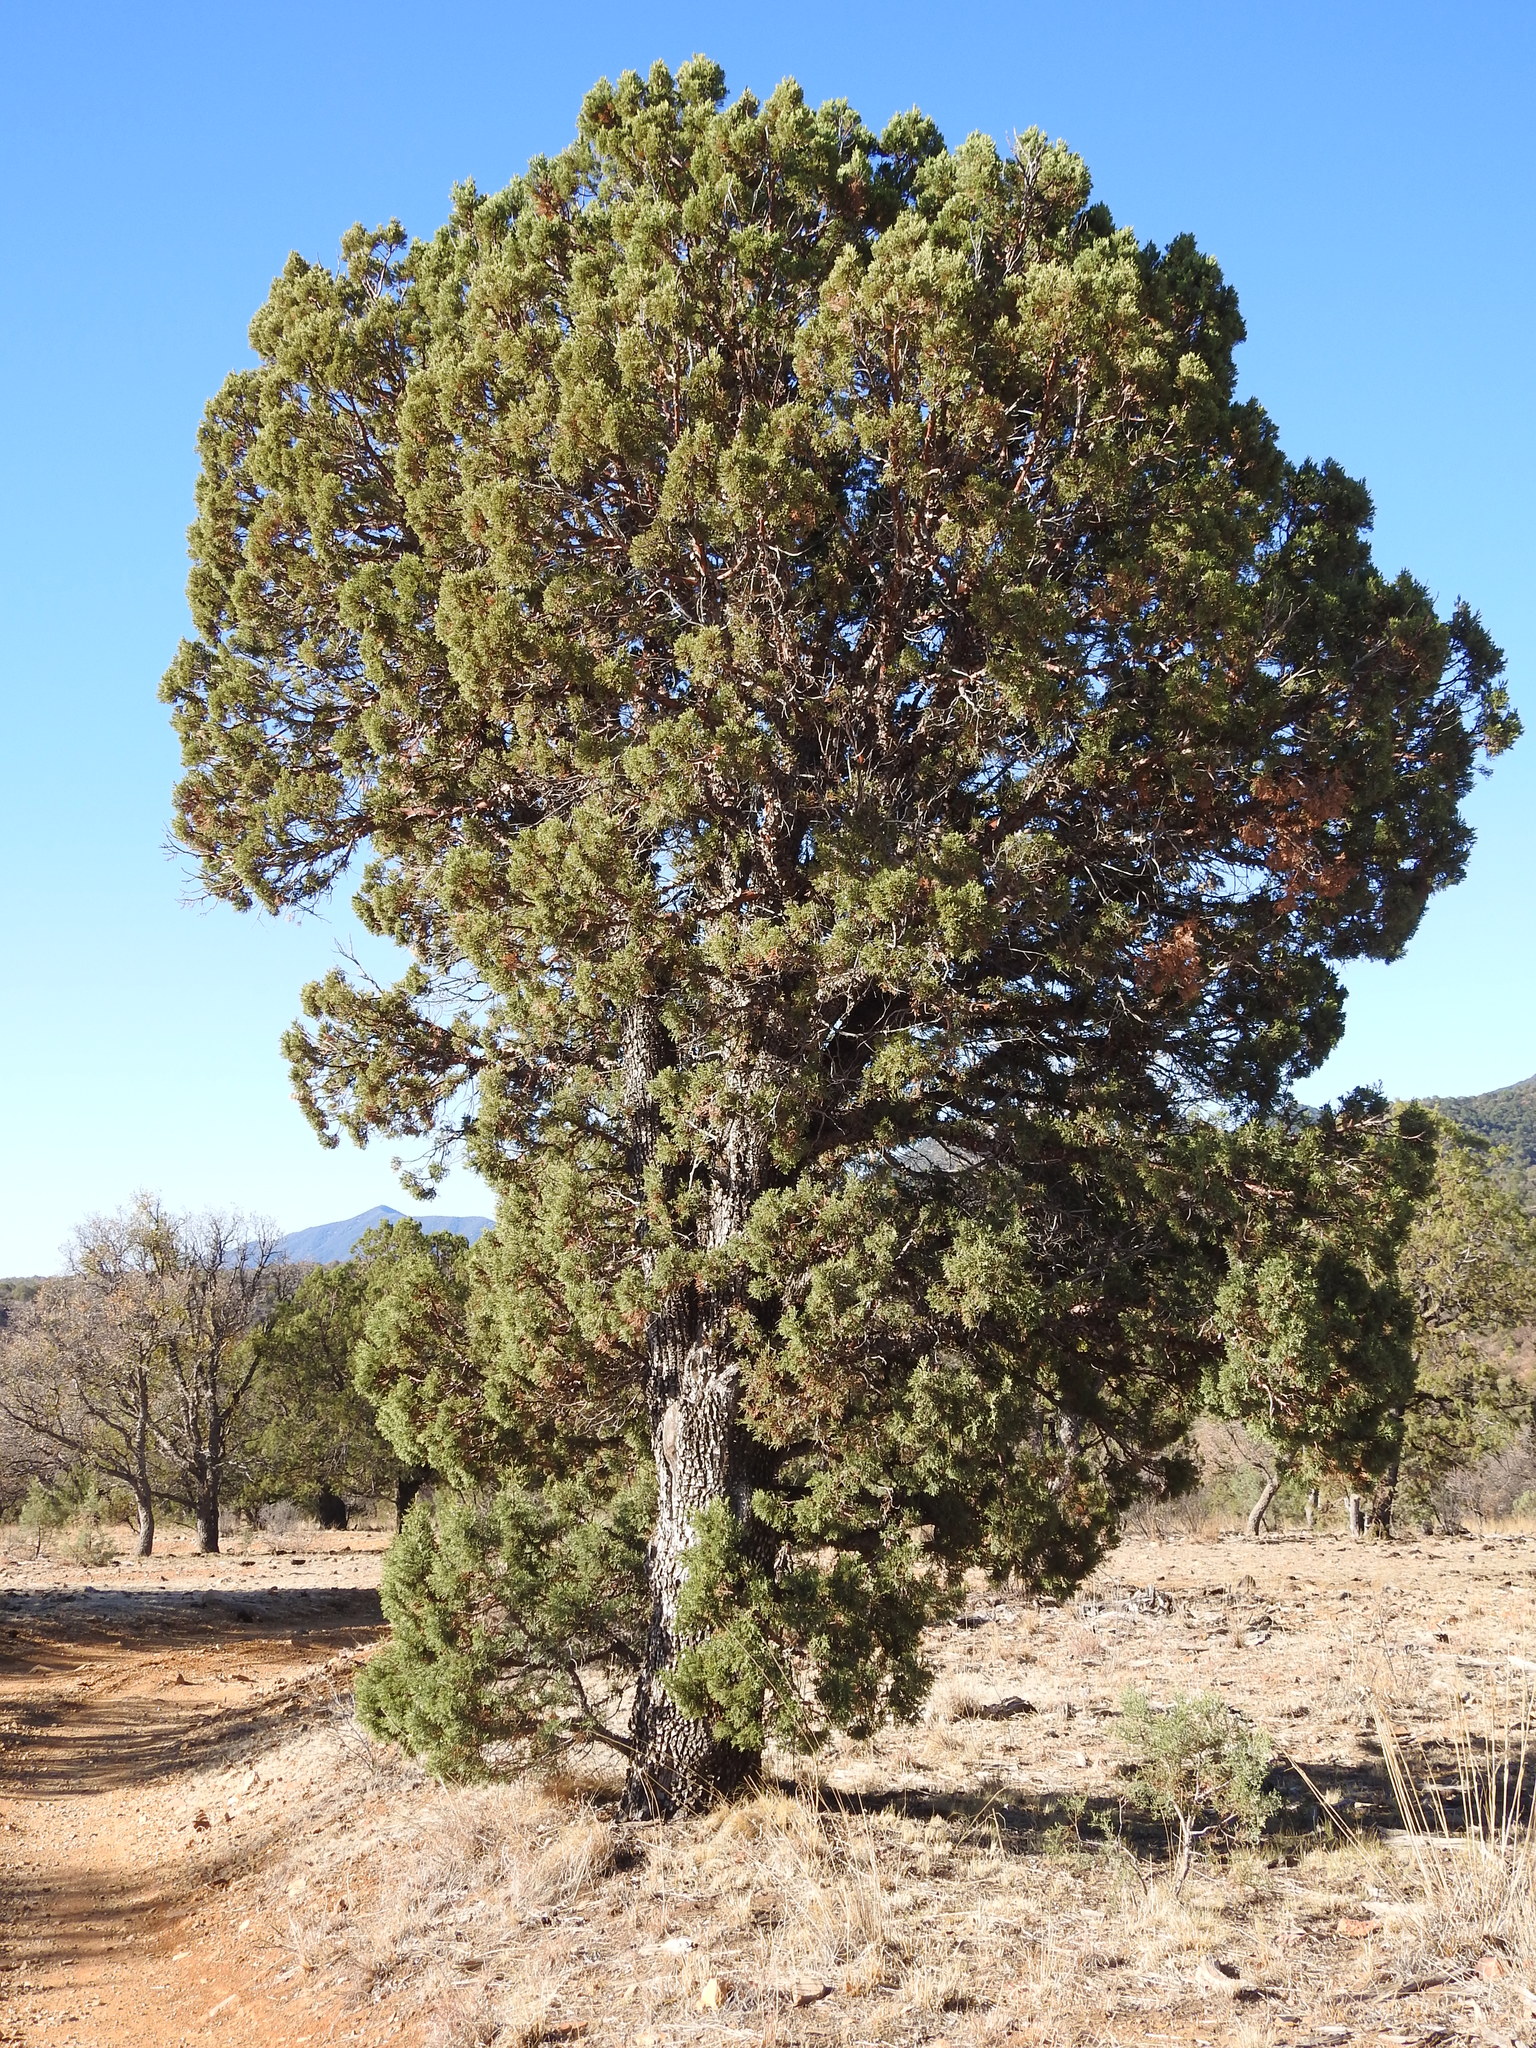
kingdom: Plantae
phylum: Tracheophyta
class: Pinopsida
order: Pinales
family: Cupressaceae
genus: Juniperus
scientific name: Juniperus deppeana
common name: Alligator juniper
